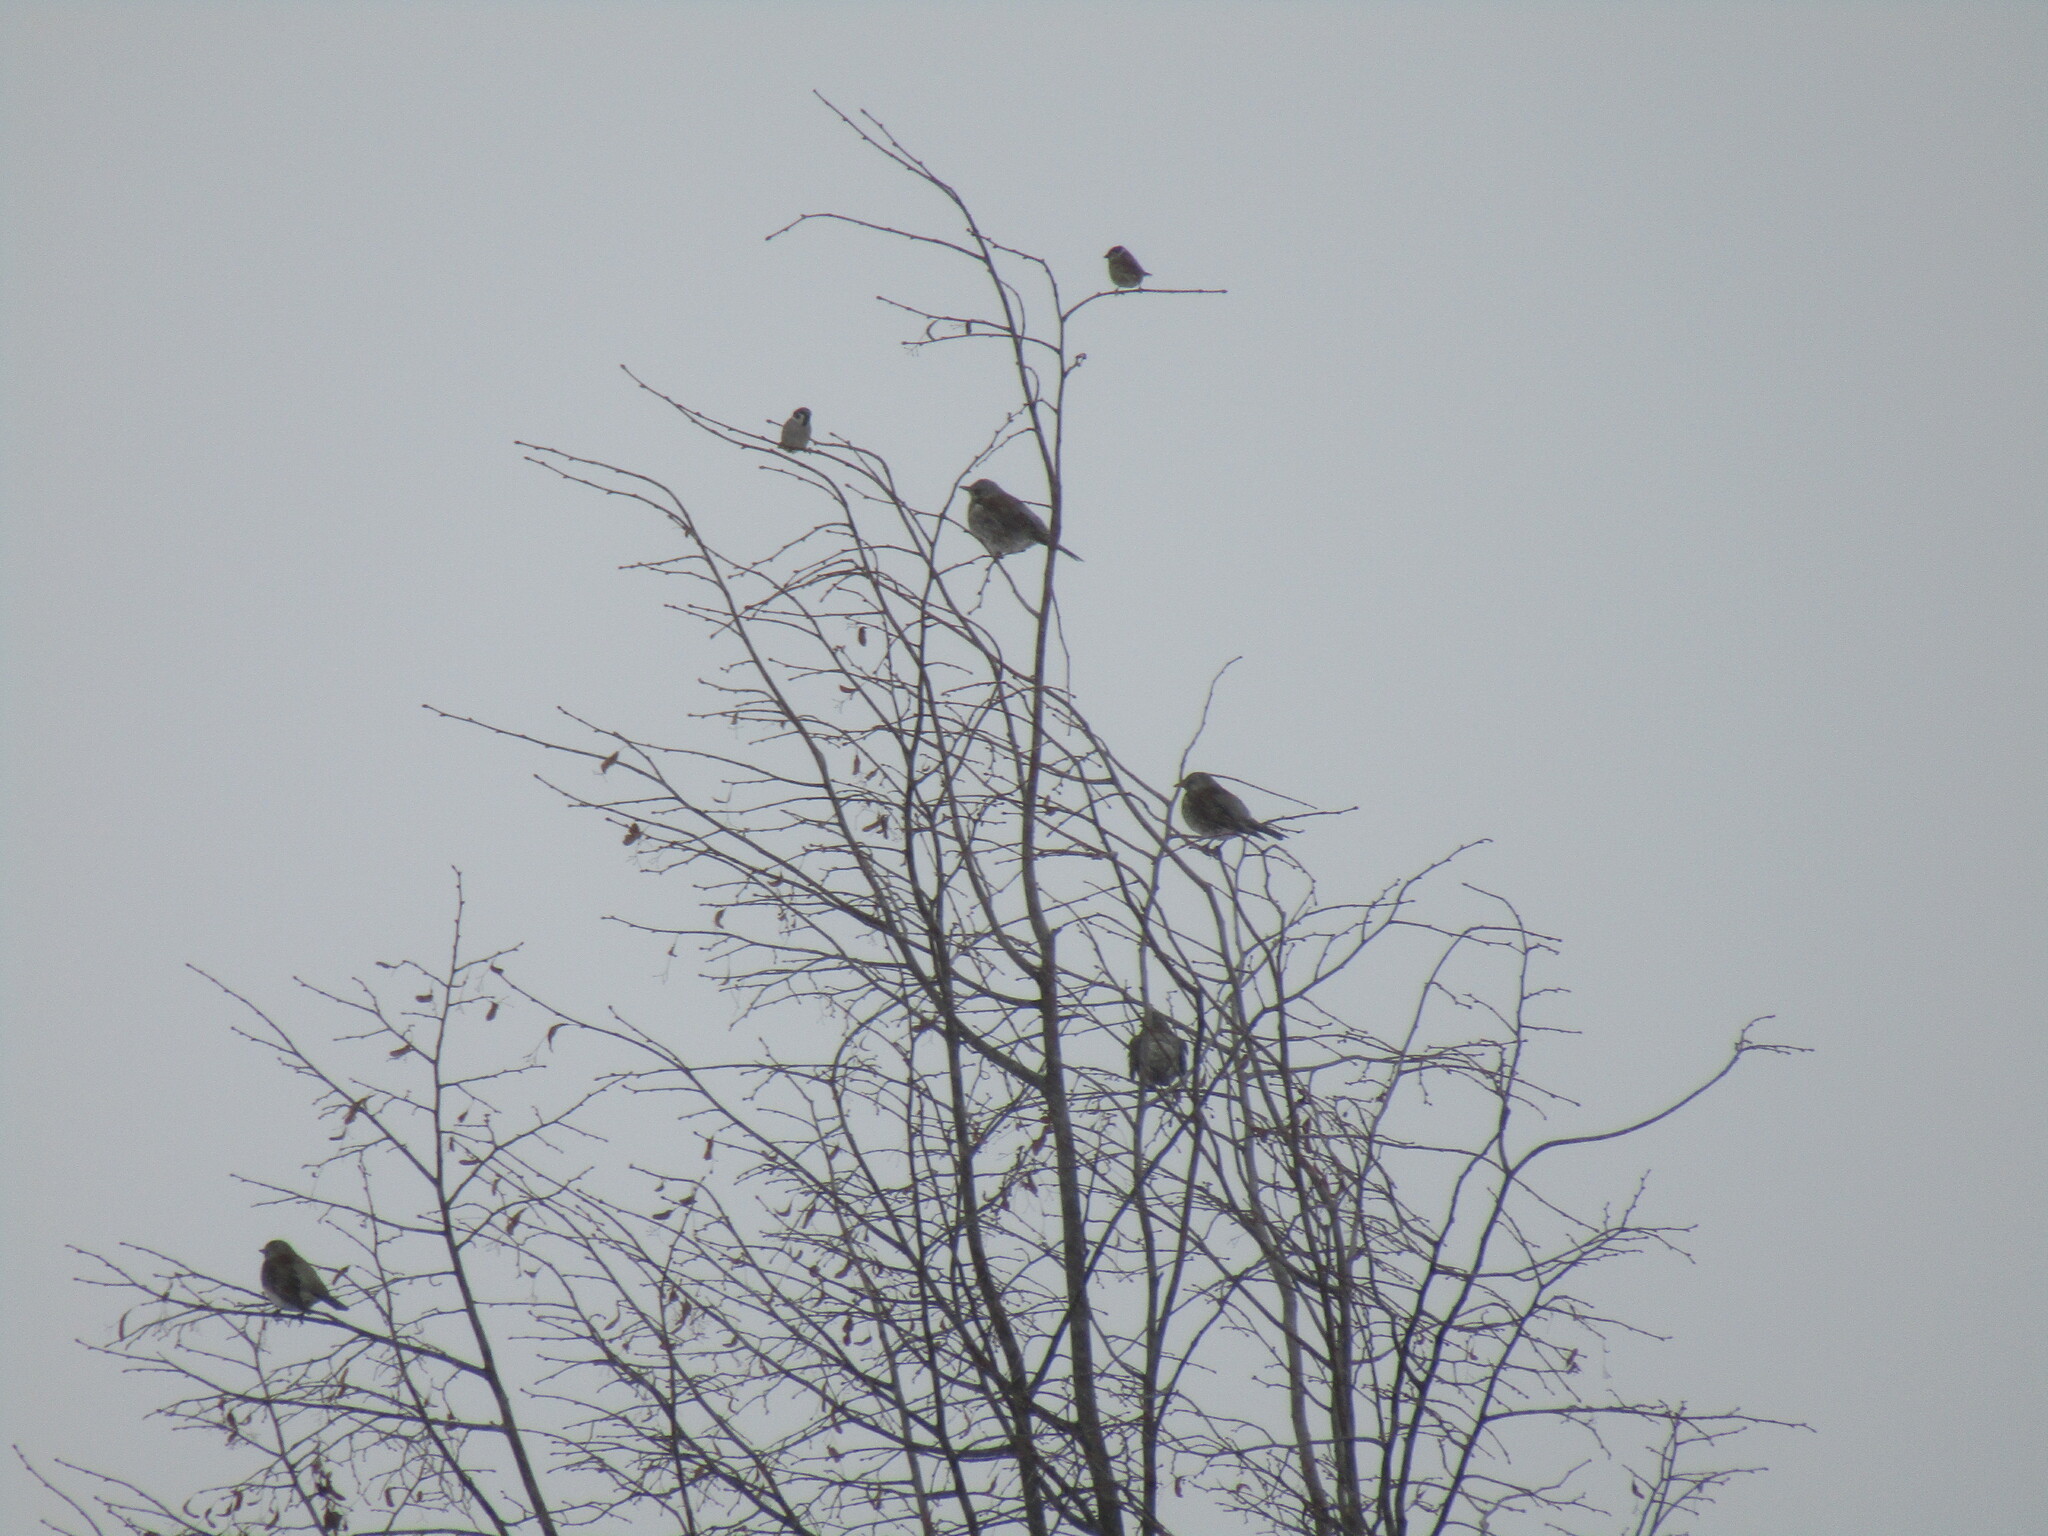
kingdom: Animalia
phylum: Chordata
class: Aves
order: Passeriformes
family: Turdidae
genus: Turdus
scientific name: Turdus pilaris
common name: Fieldfare
